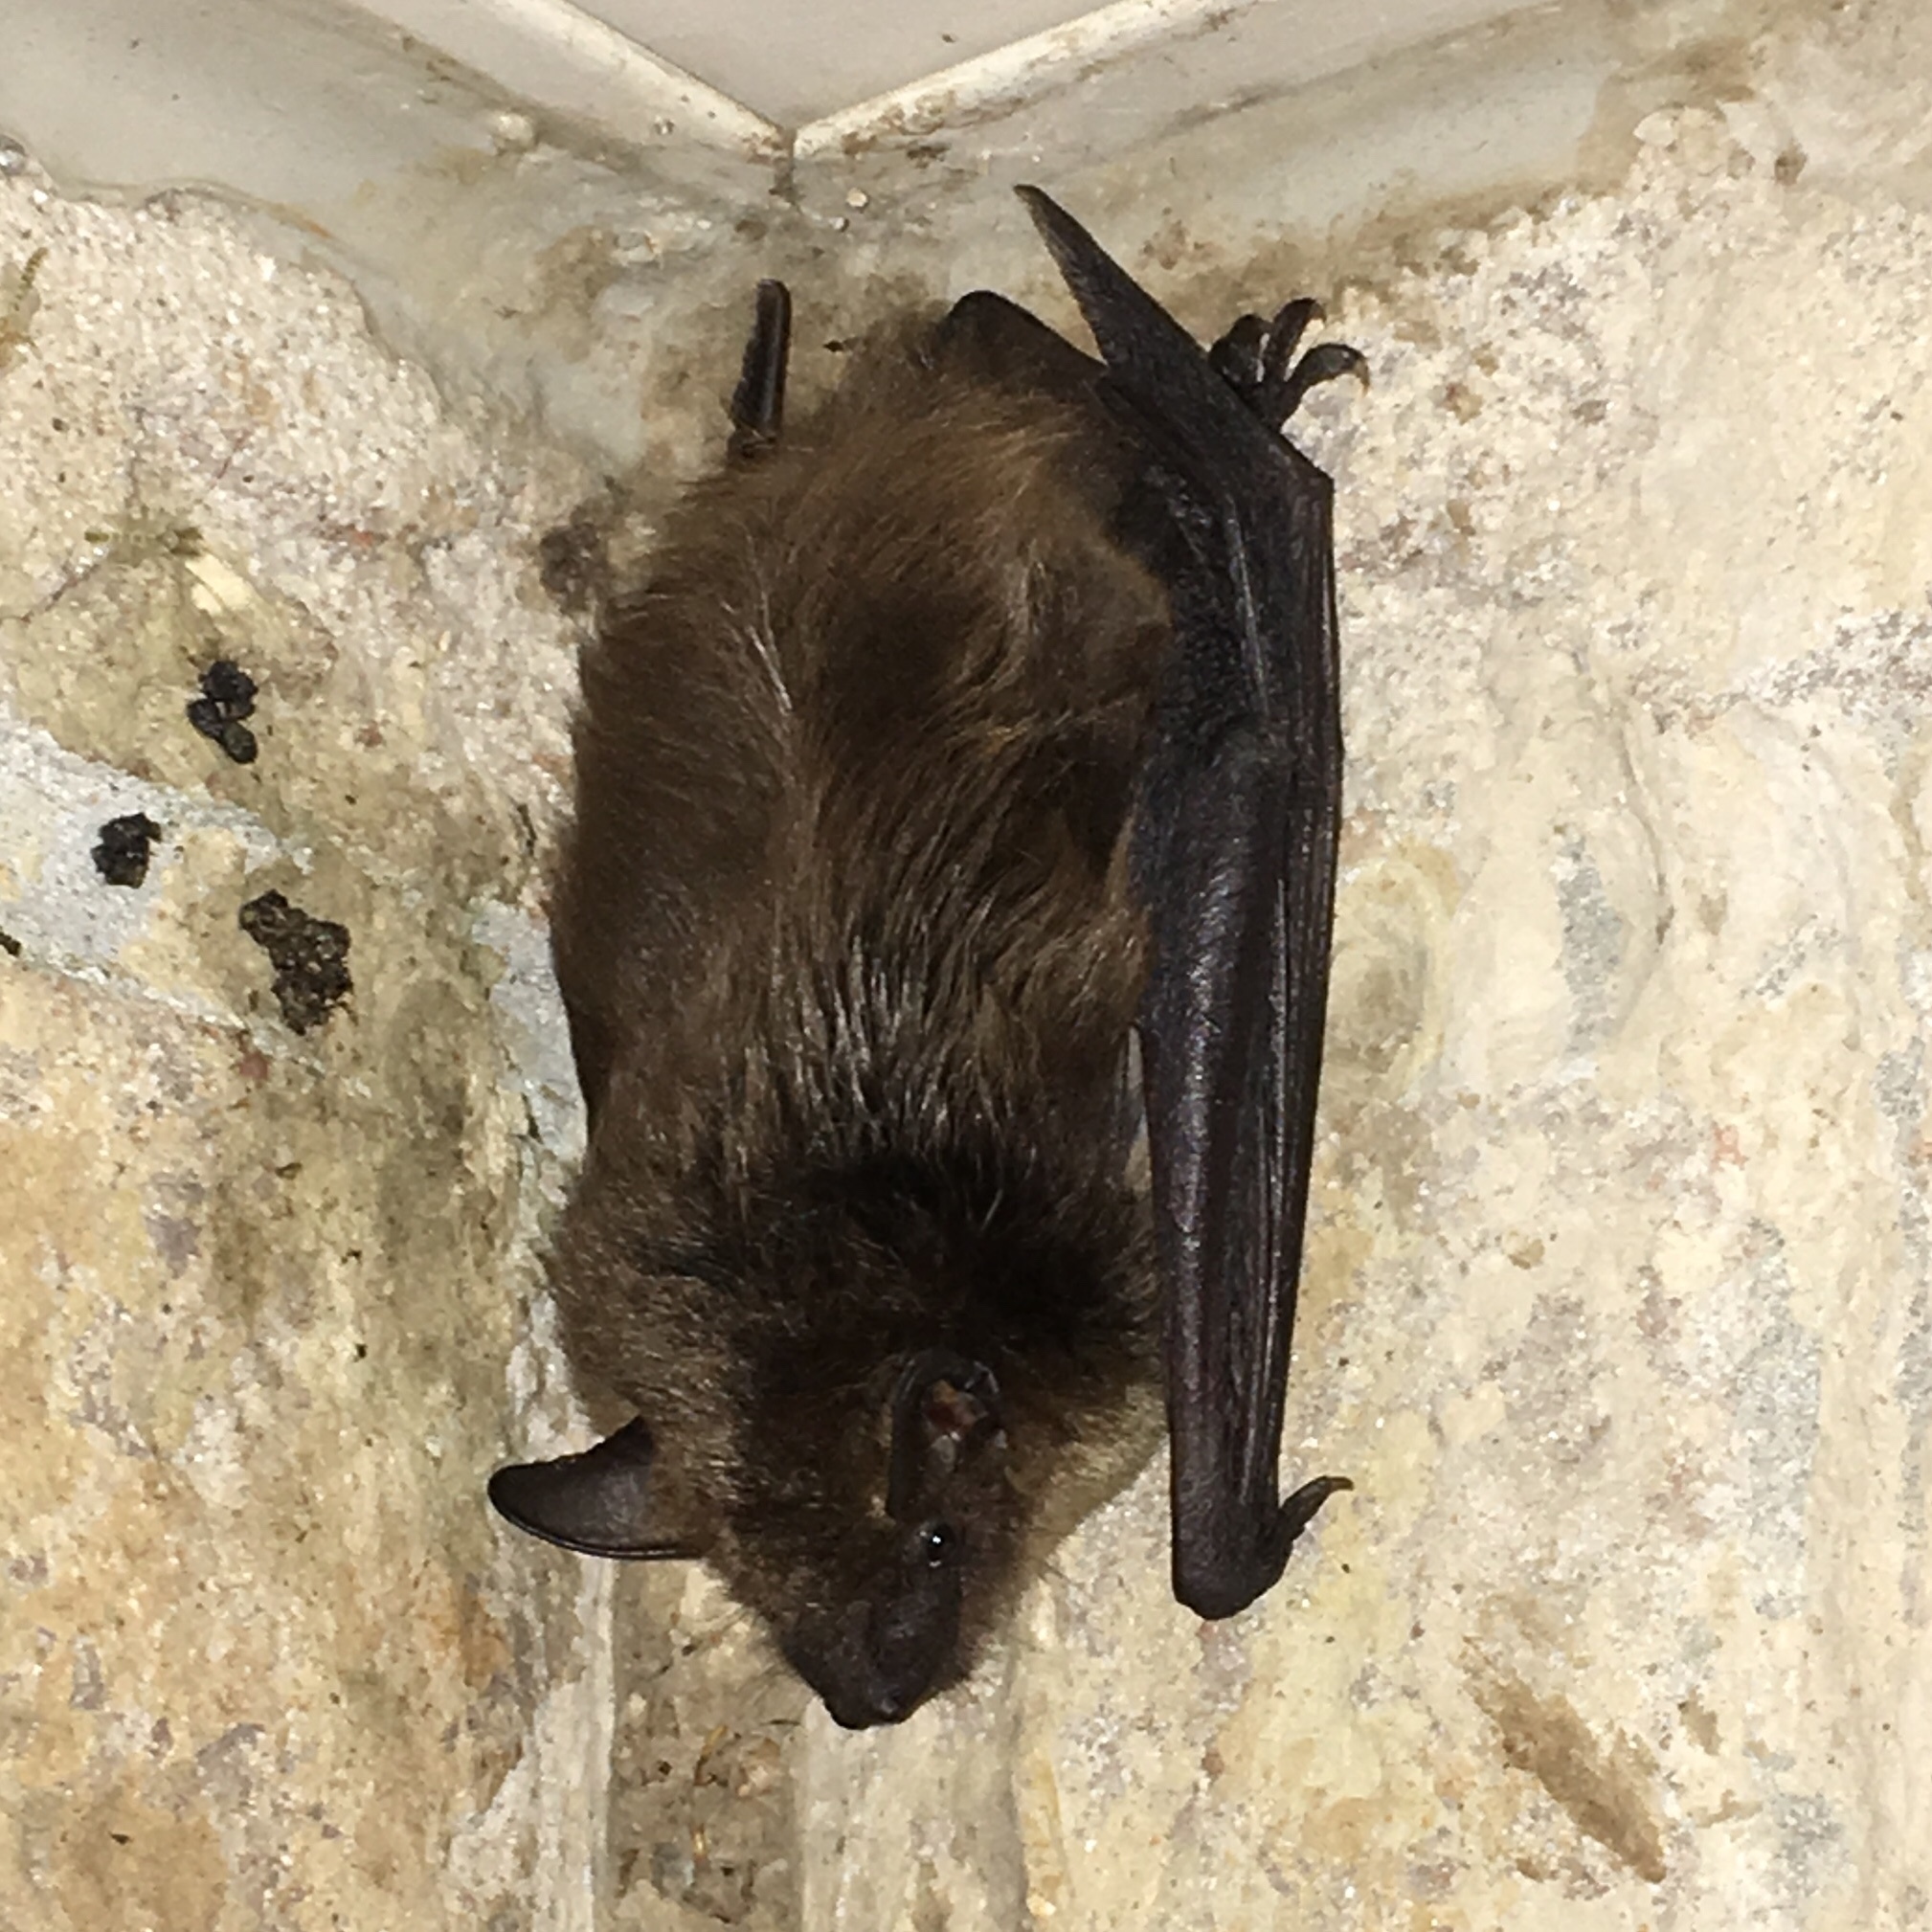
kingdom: Animalia
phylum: Chordata
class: Mammalia
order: Chiroptera
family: Vespertilionidae
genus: Eptesicus
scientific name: Eptesicus fuscus
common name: Big brown bat
